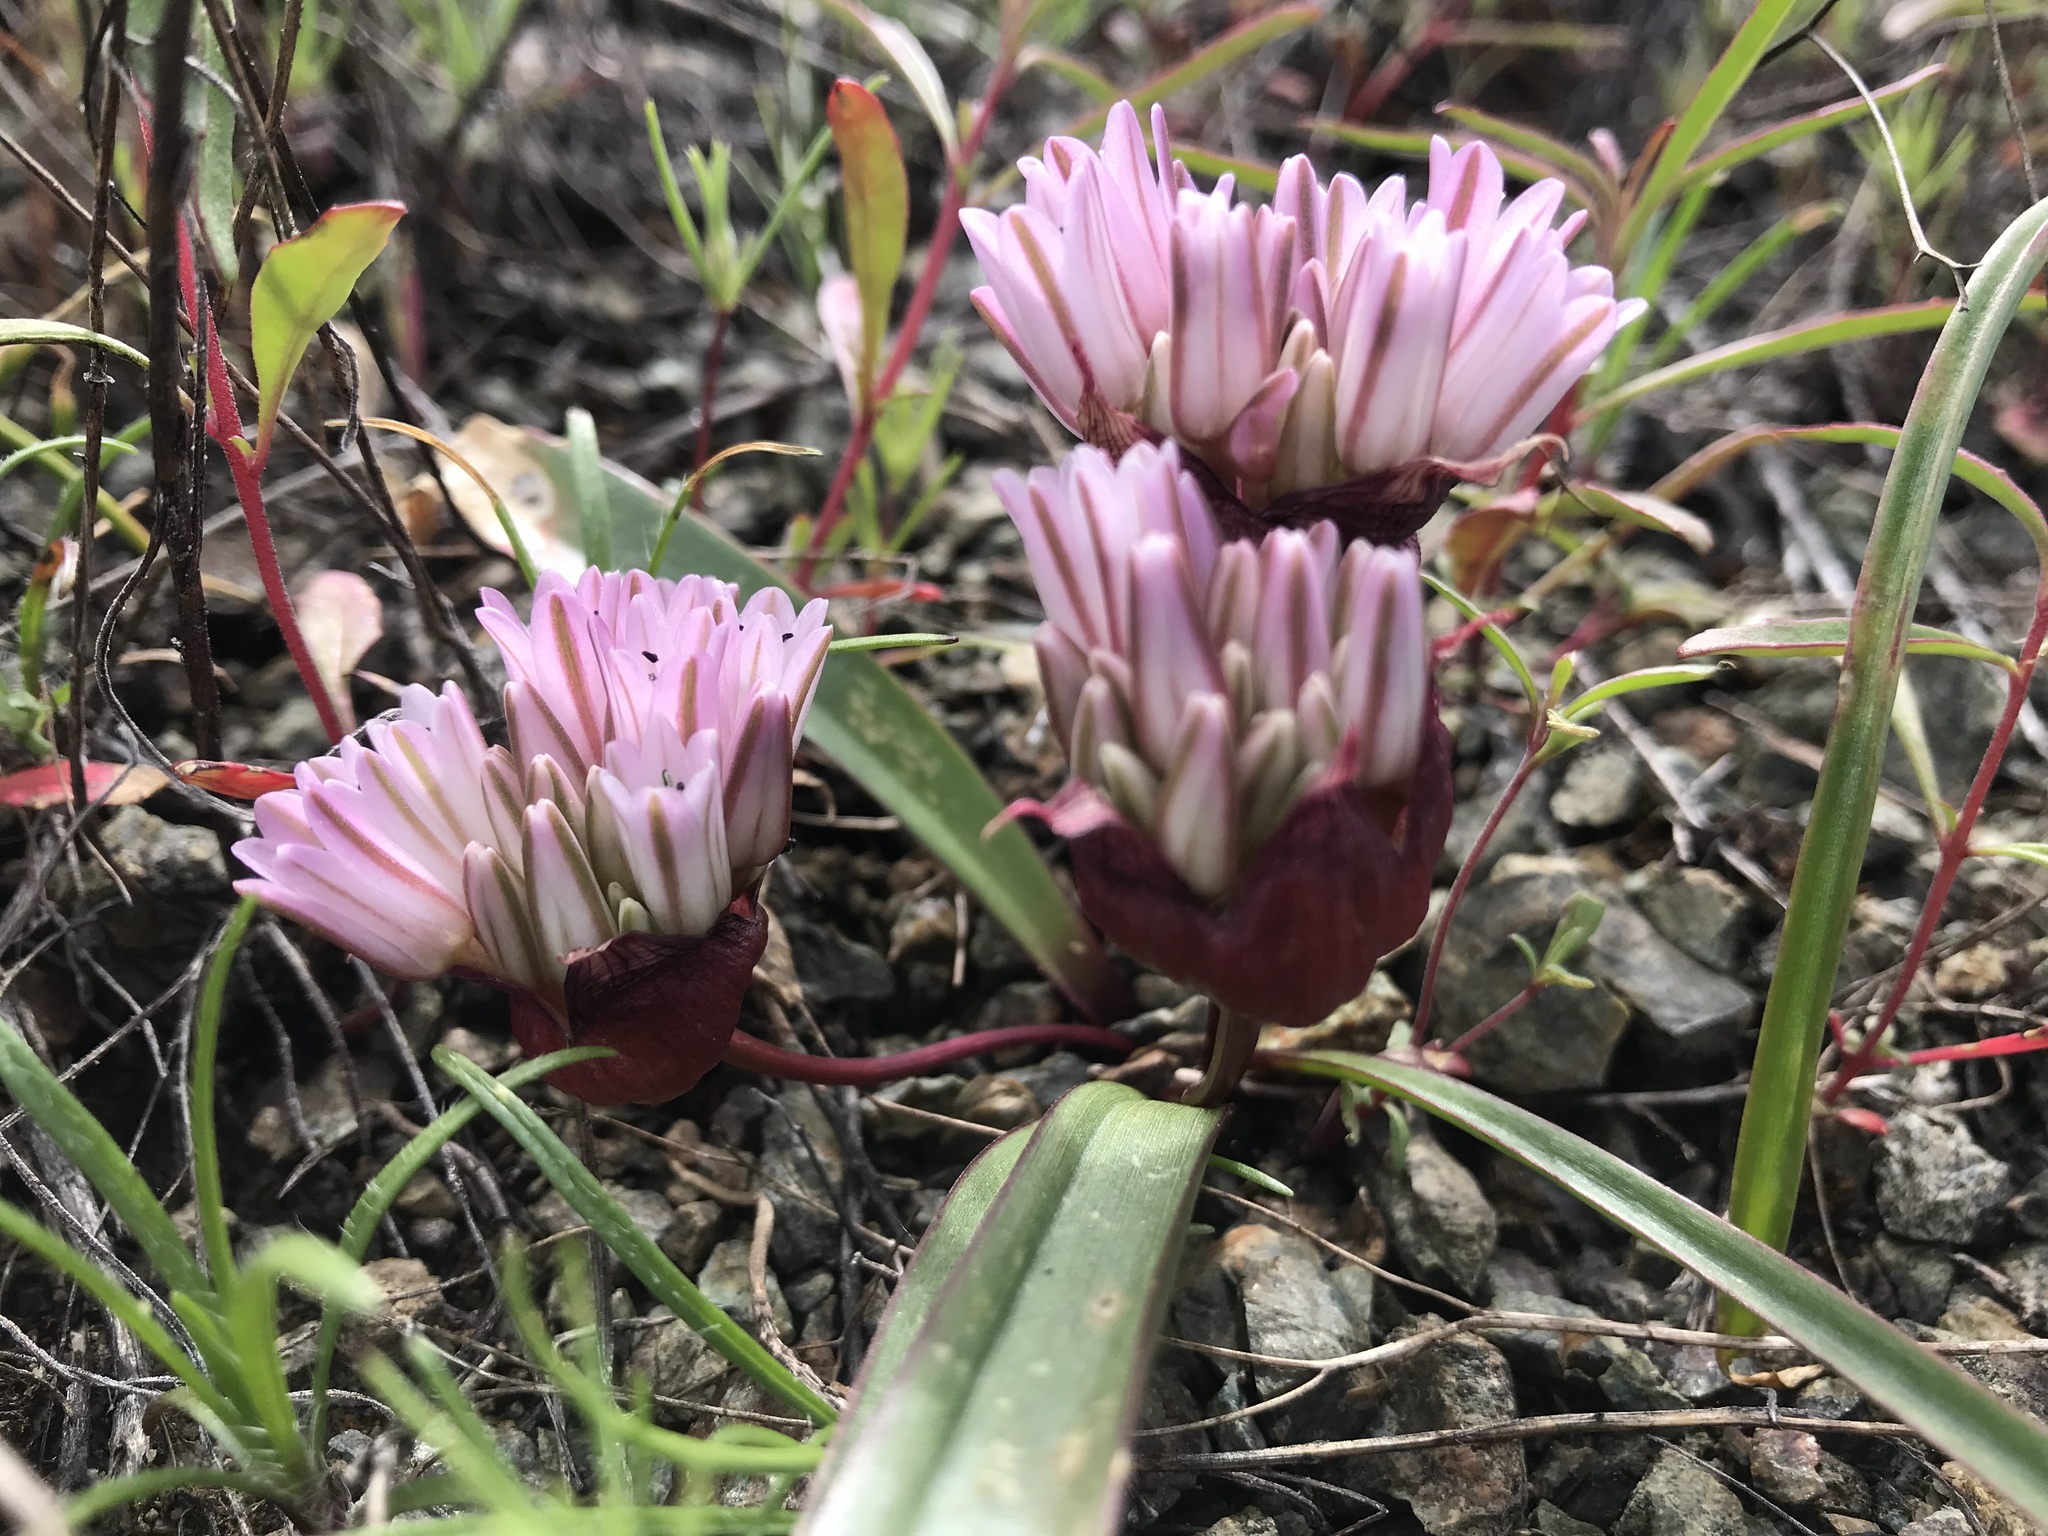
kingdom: Plantae
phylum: Tracheophyta
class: Liliopsida
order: Asparagales
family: Amaryllidaceae
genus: Allium
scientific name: Allium cratericola
